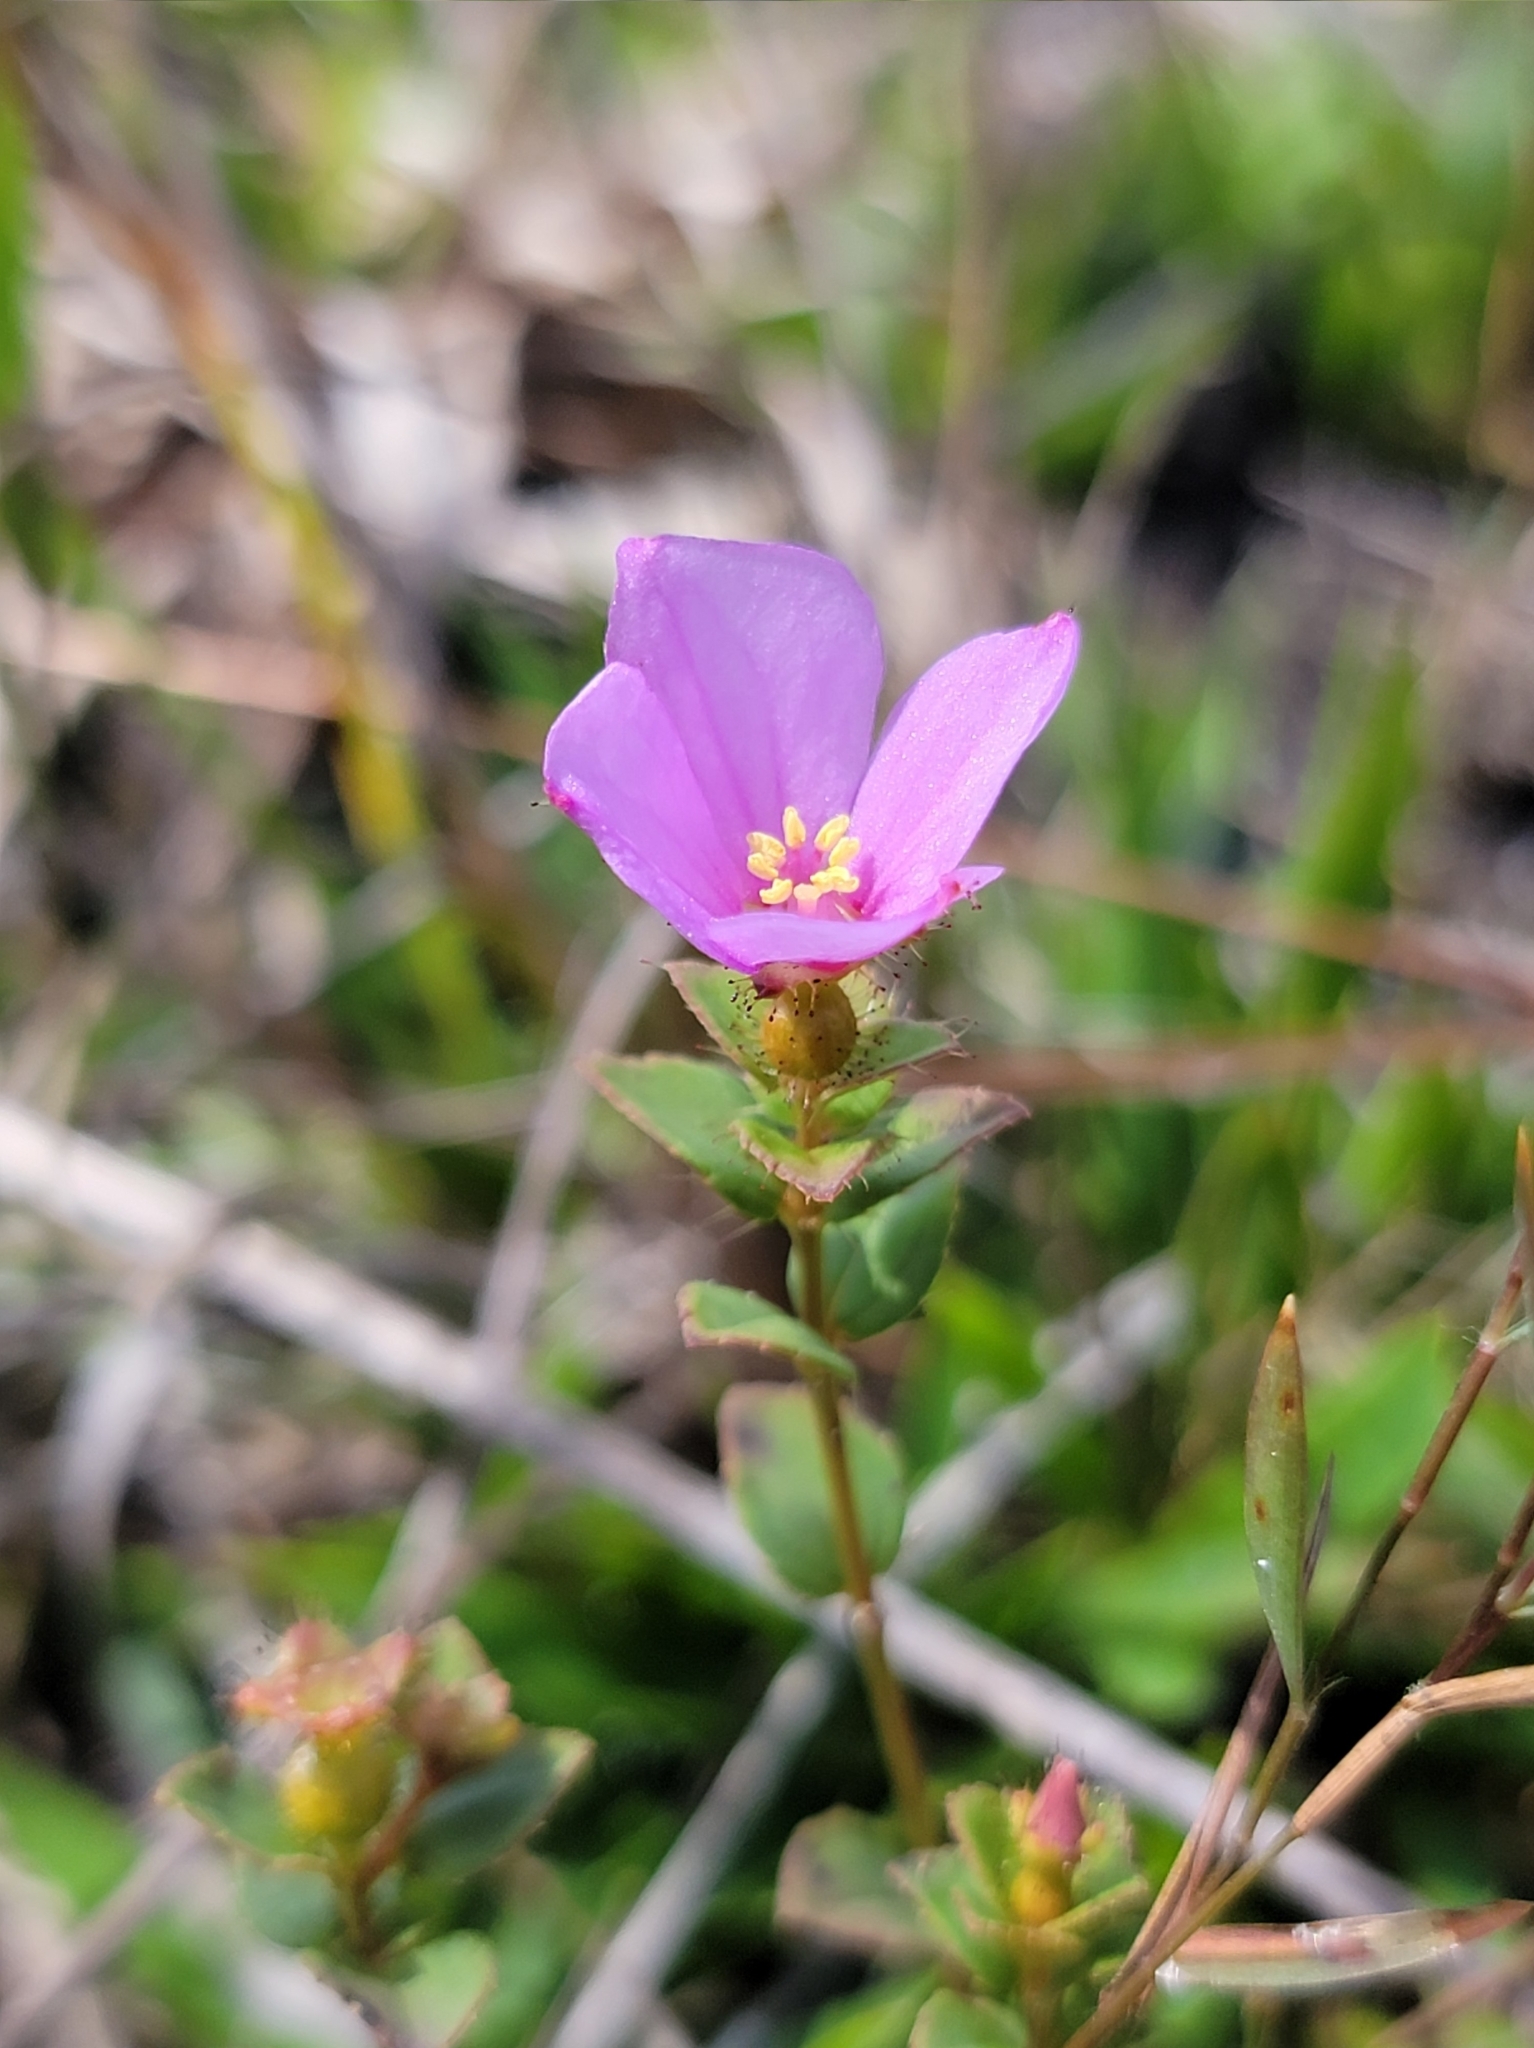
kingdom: Plantae
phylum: Tracheophyta
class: Magnoliopsida
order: Myrtales
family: Melastomataceae
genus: Rhexia
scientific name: Rhexia nuttallii
